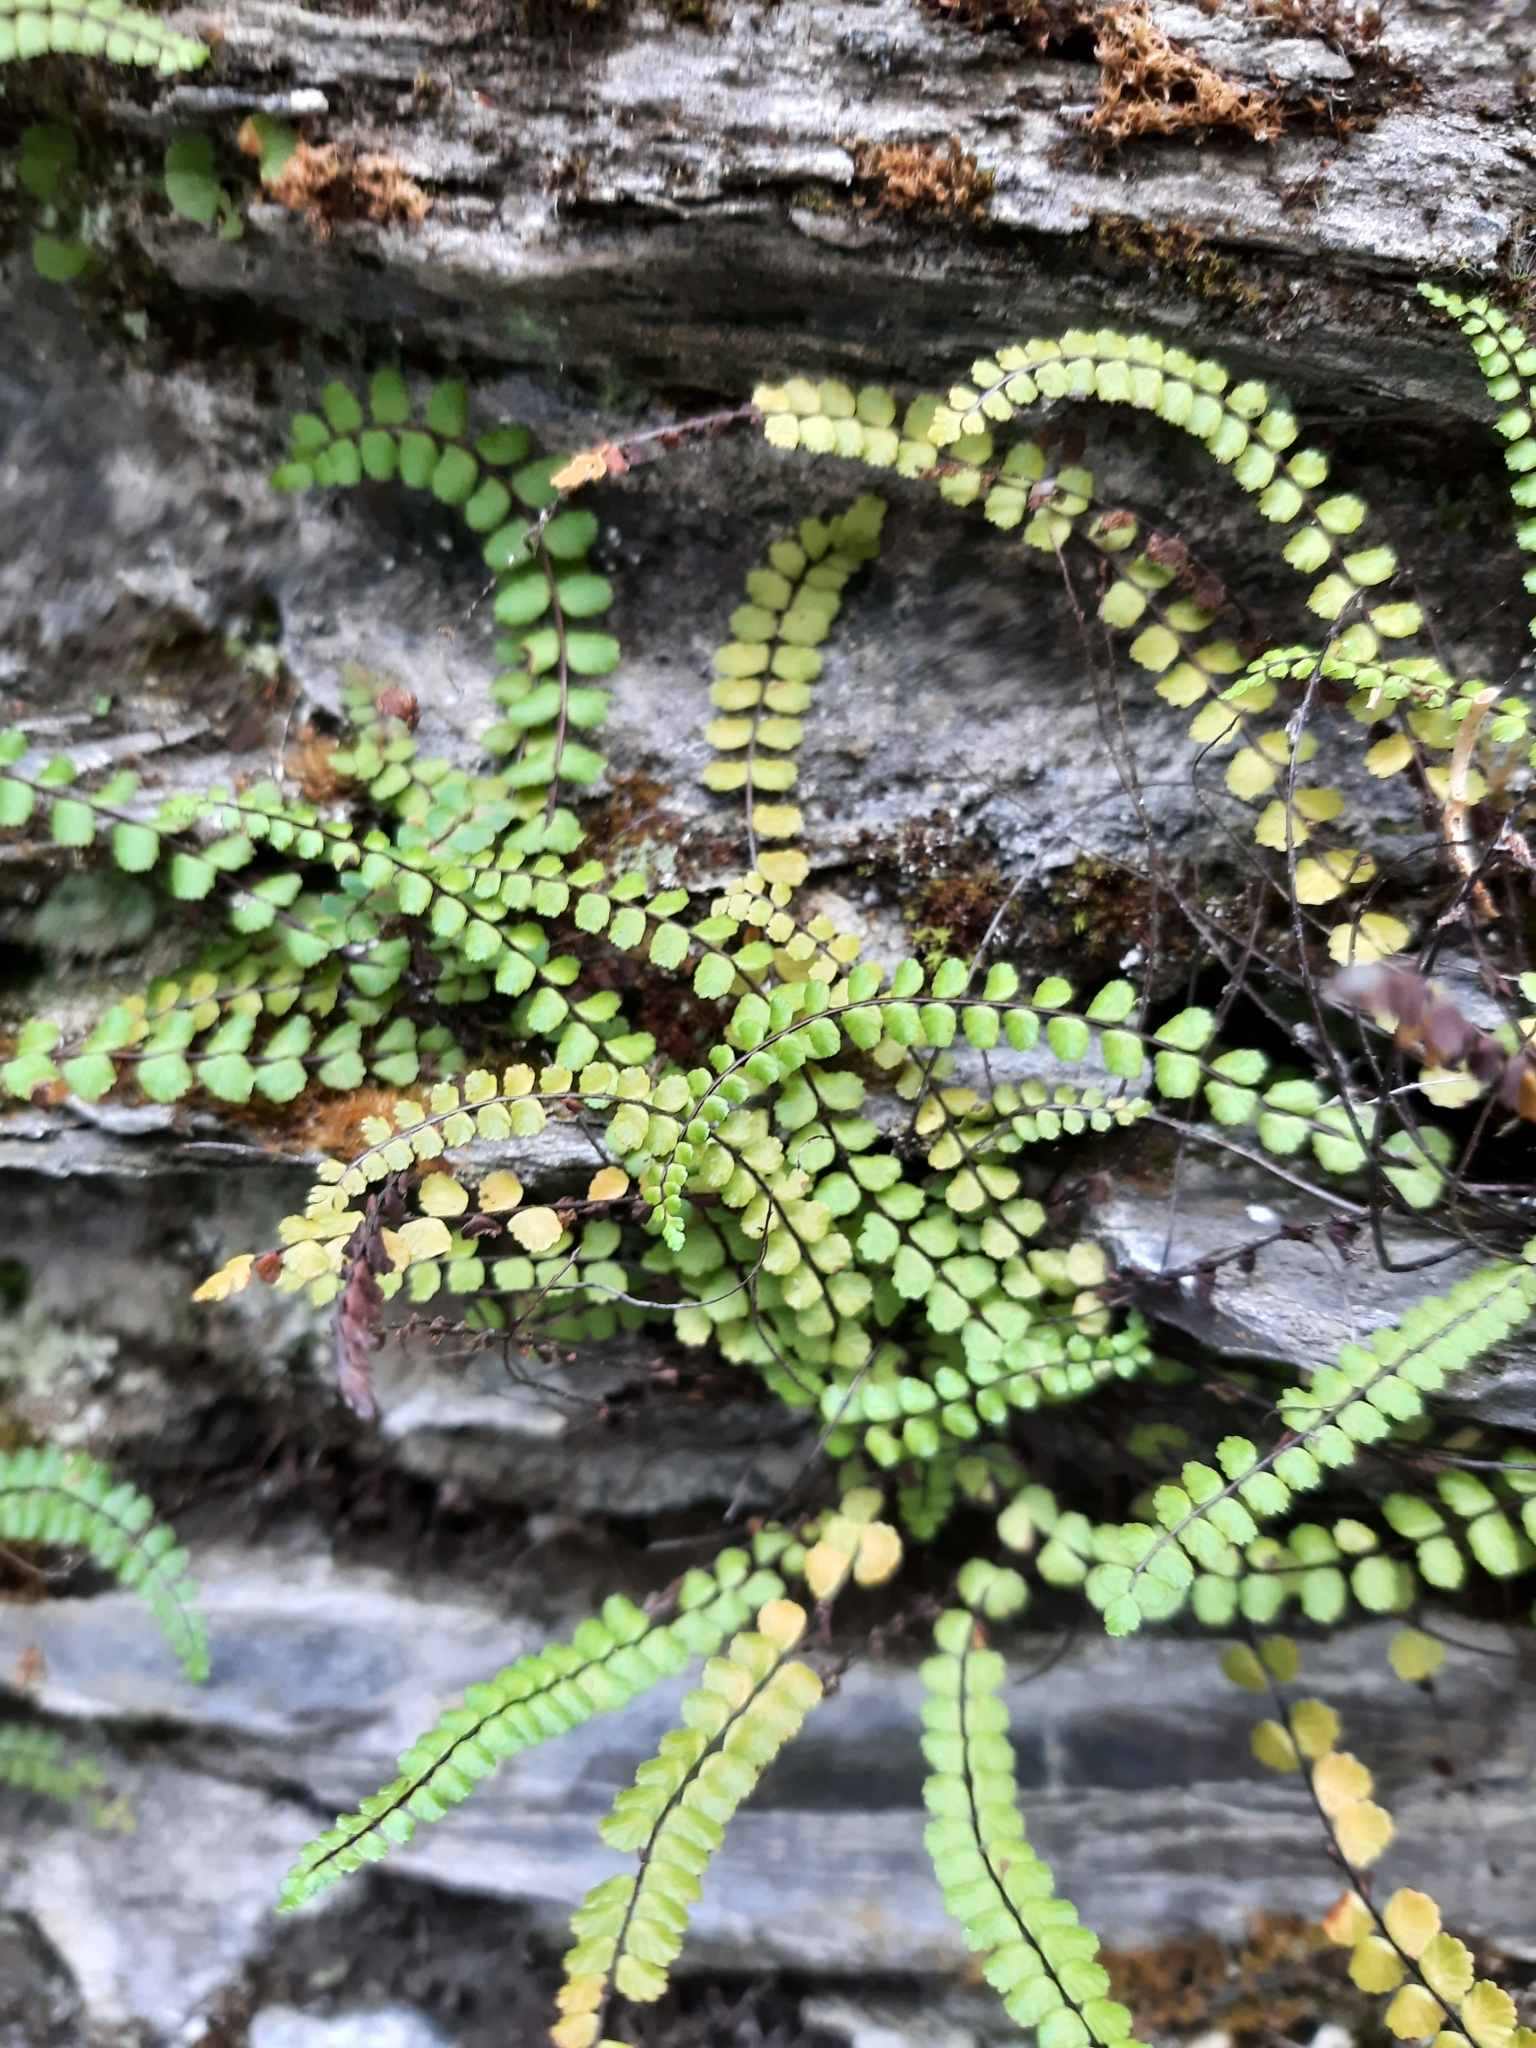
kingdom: Plantae
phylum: Tracheophyta
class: Polypodiopsida
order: Polypodiales
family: Aspleniaceae
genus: Asplenium
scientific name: Asplenium trichomanes
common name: Maidenhair spleenwort
